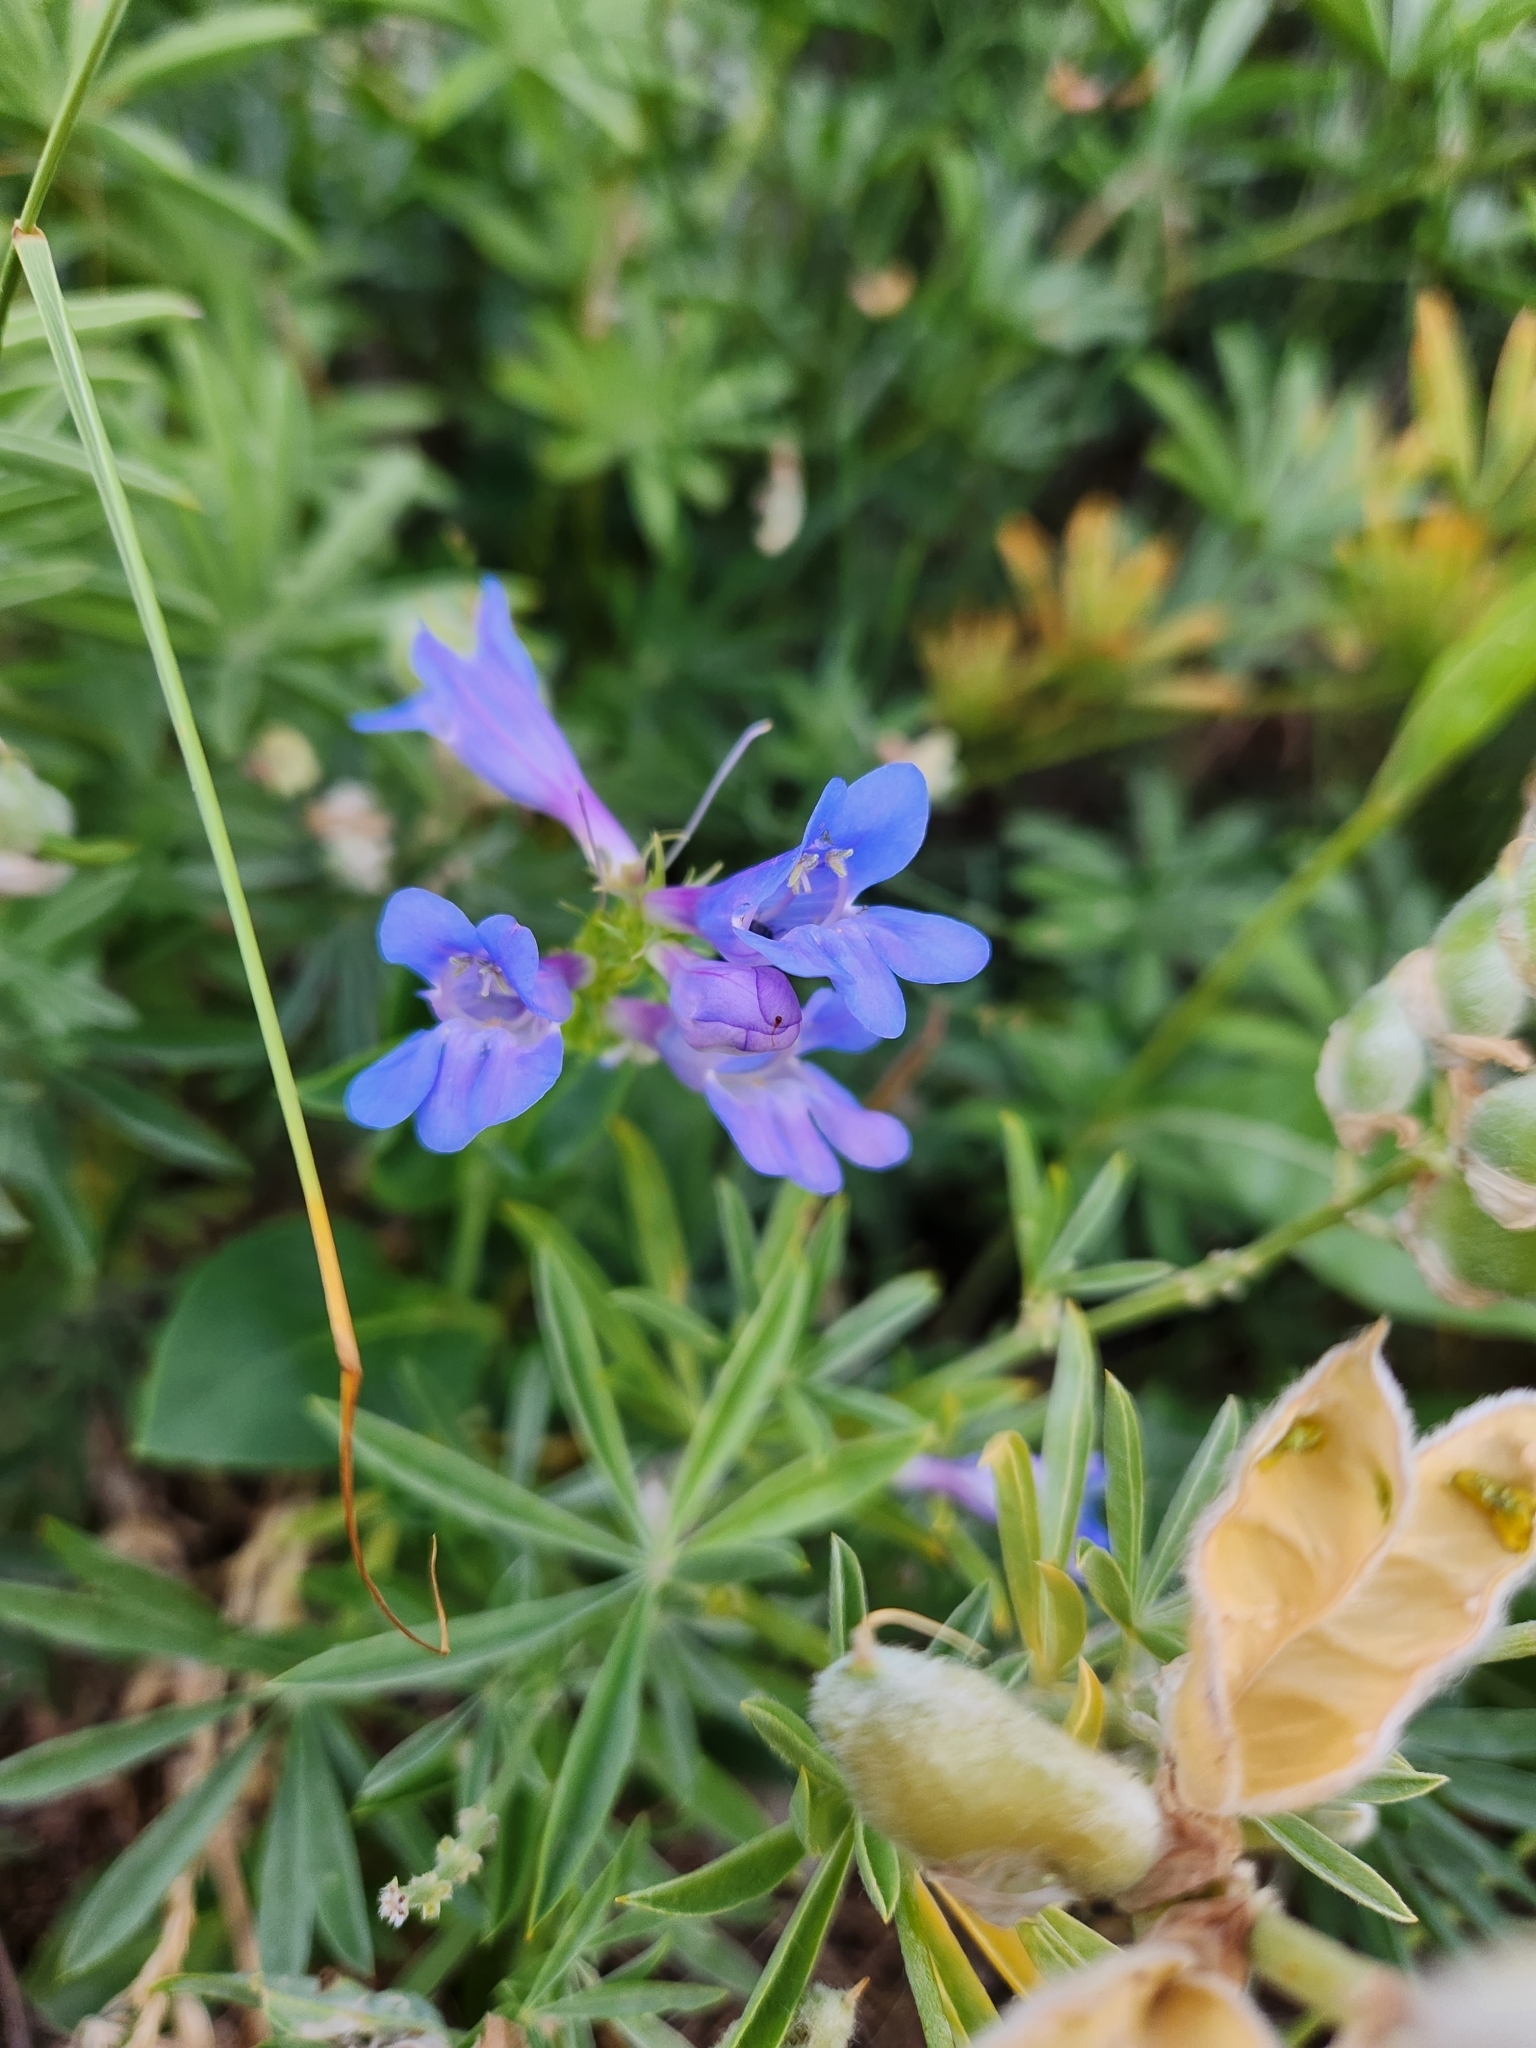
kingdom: Plantae
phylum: Tracheophyta
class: Magnoliopsida
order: Lamiales
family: Plantaginaceae
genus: Penstemon
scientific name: Penstemon cyananthus
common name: Wasatch penstemon
